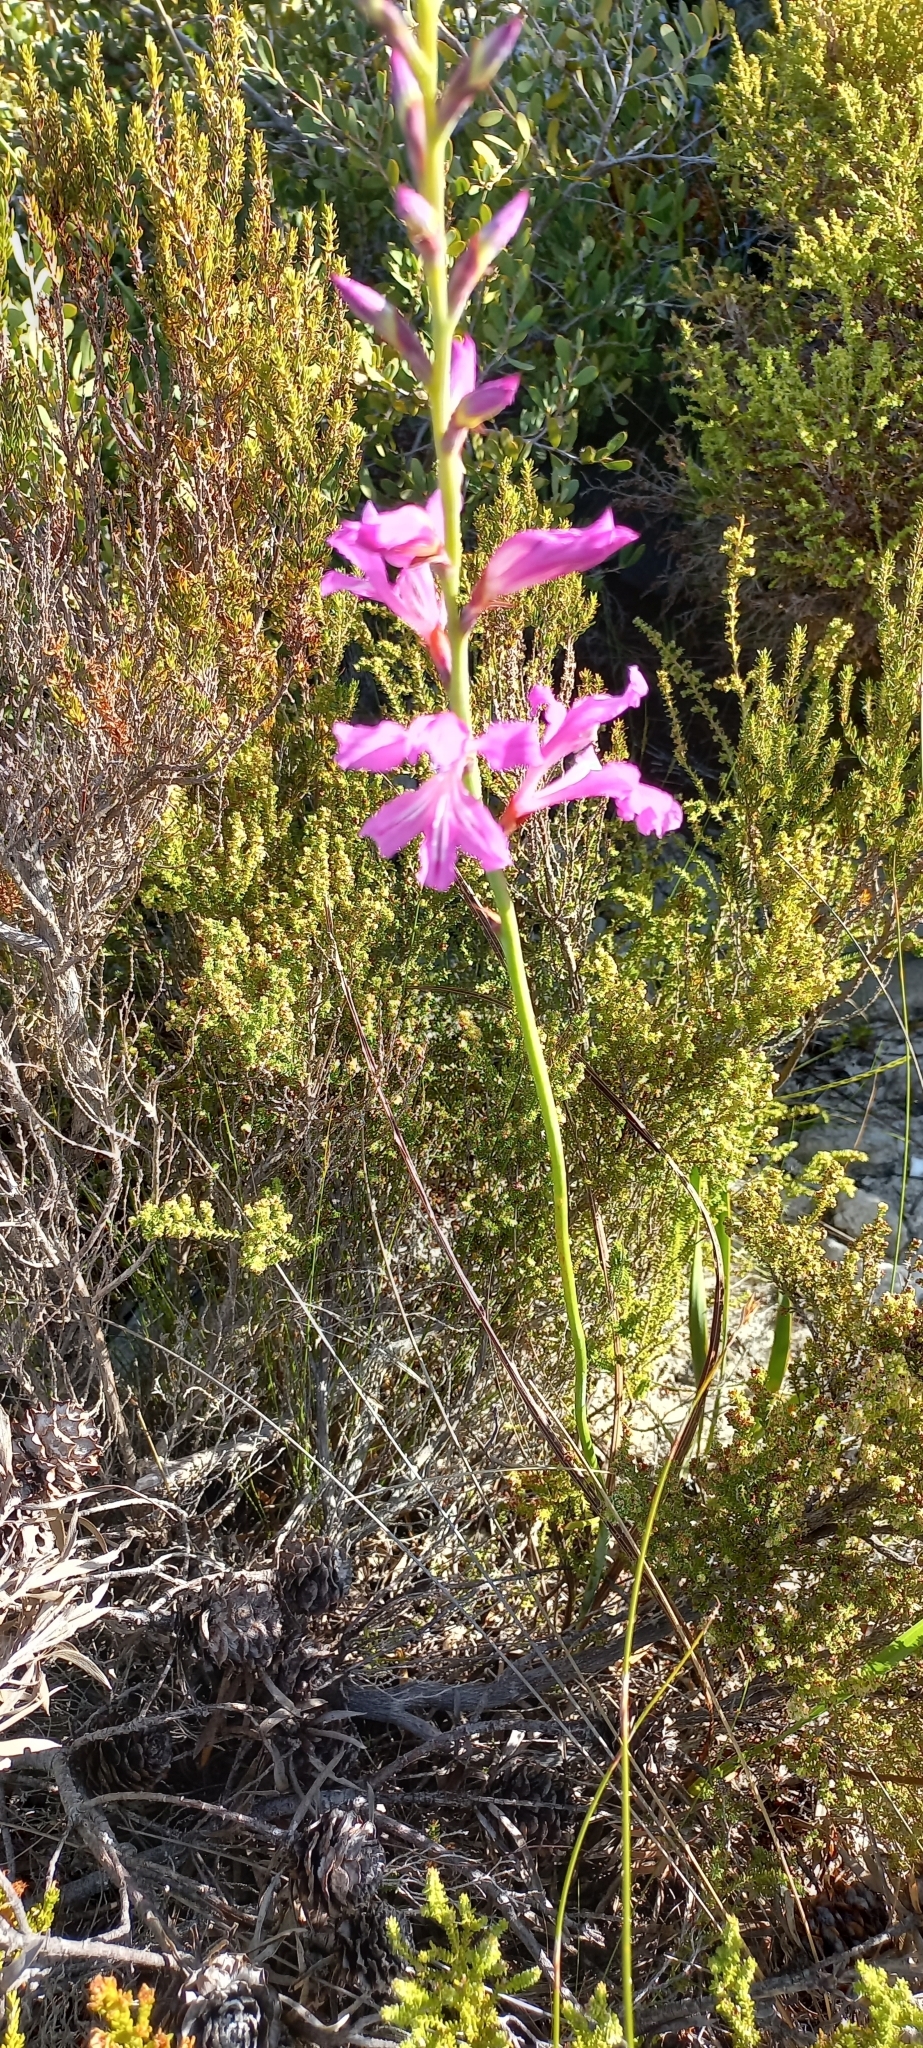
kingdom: Plantae
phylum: Tracheophyta
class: Liliopsida
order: Asparagales
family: Iridaceae
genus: Tritoniopsis
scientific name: Tritoniopsis lata
